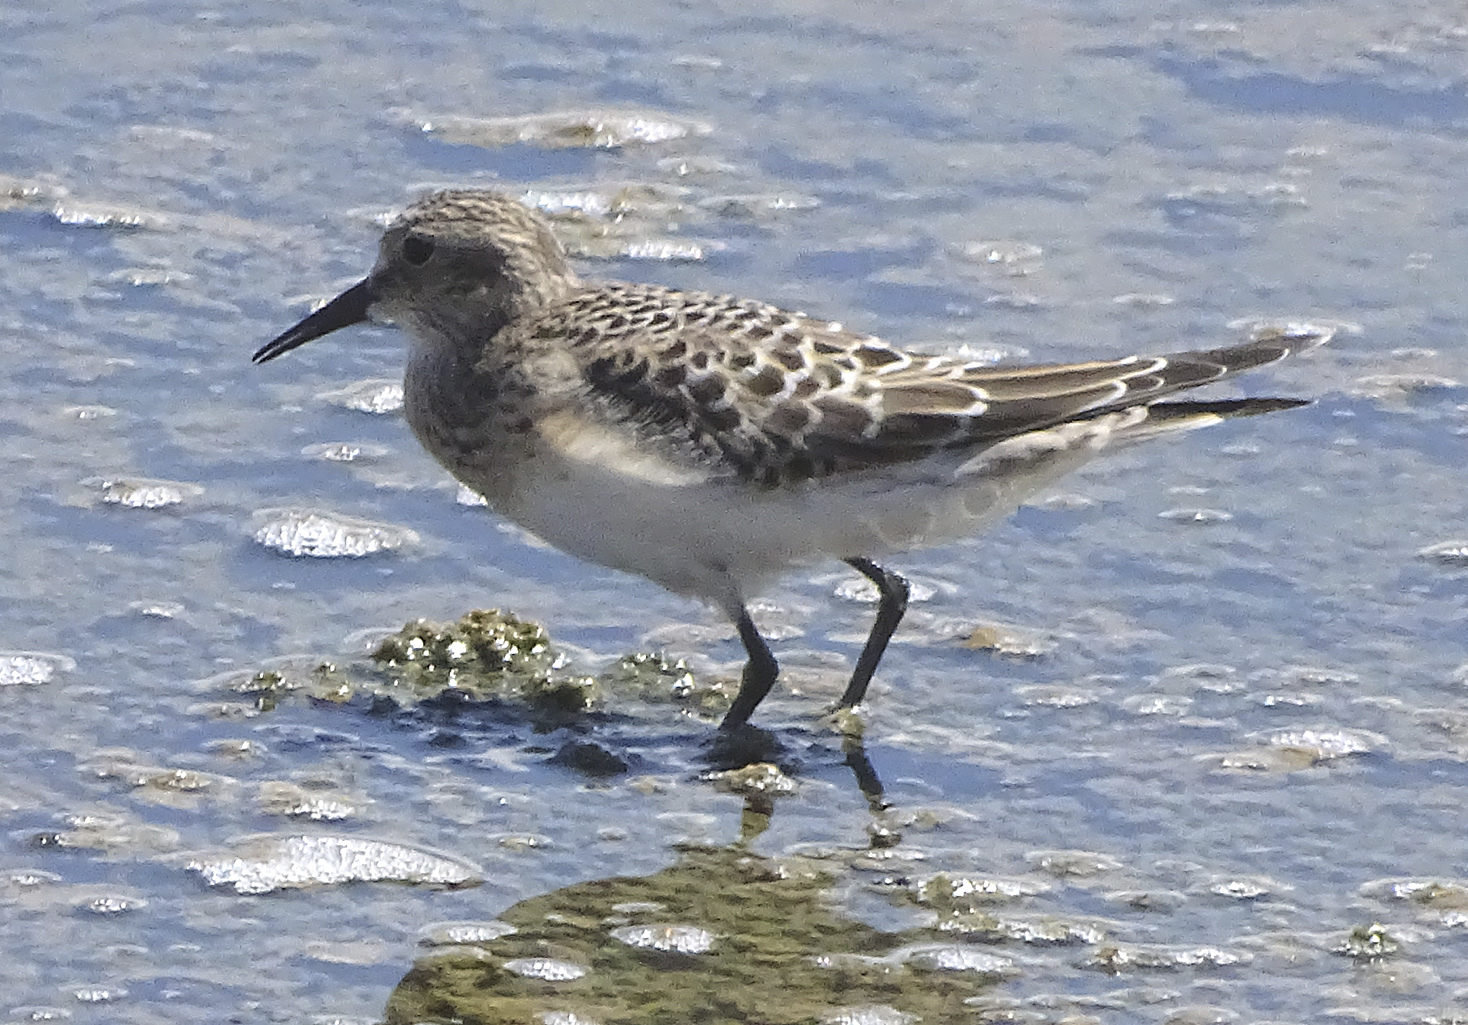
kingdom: Animalia
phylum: Chordata
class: Aves
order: Charadriiformes
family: Scolopacidae
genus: Calidris
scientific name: Calidris bairdii
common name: Baird's sandpiper
